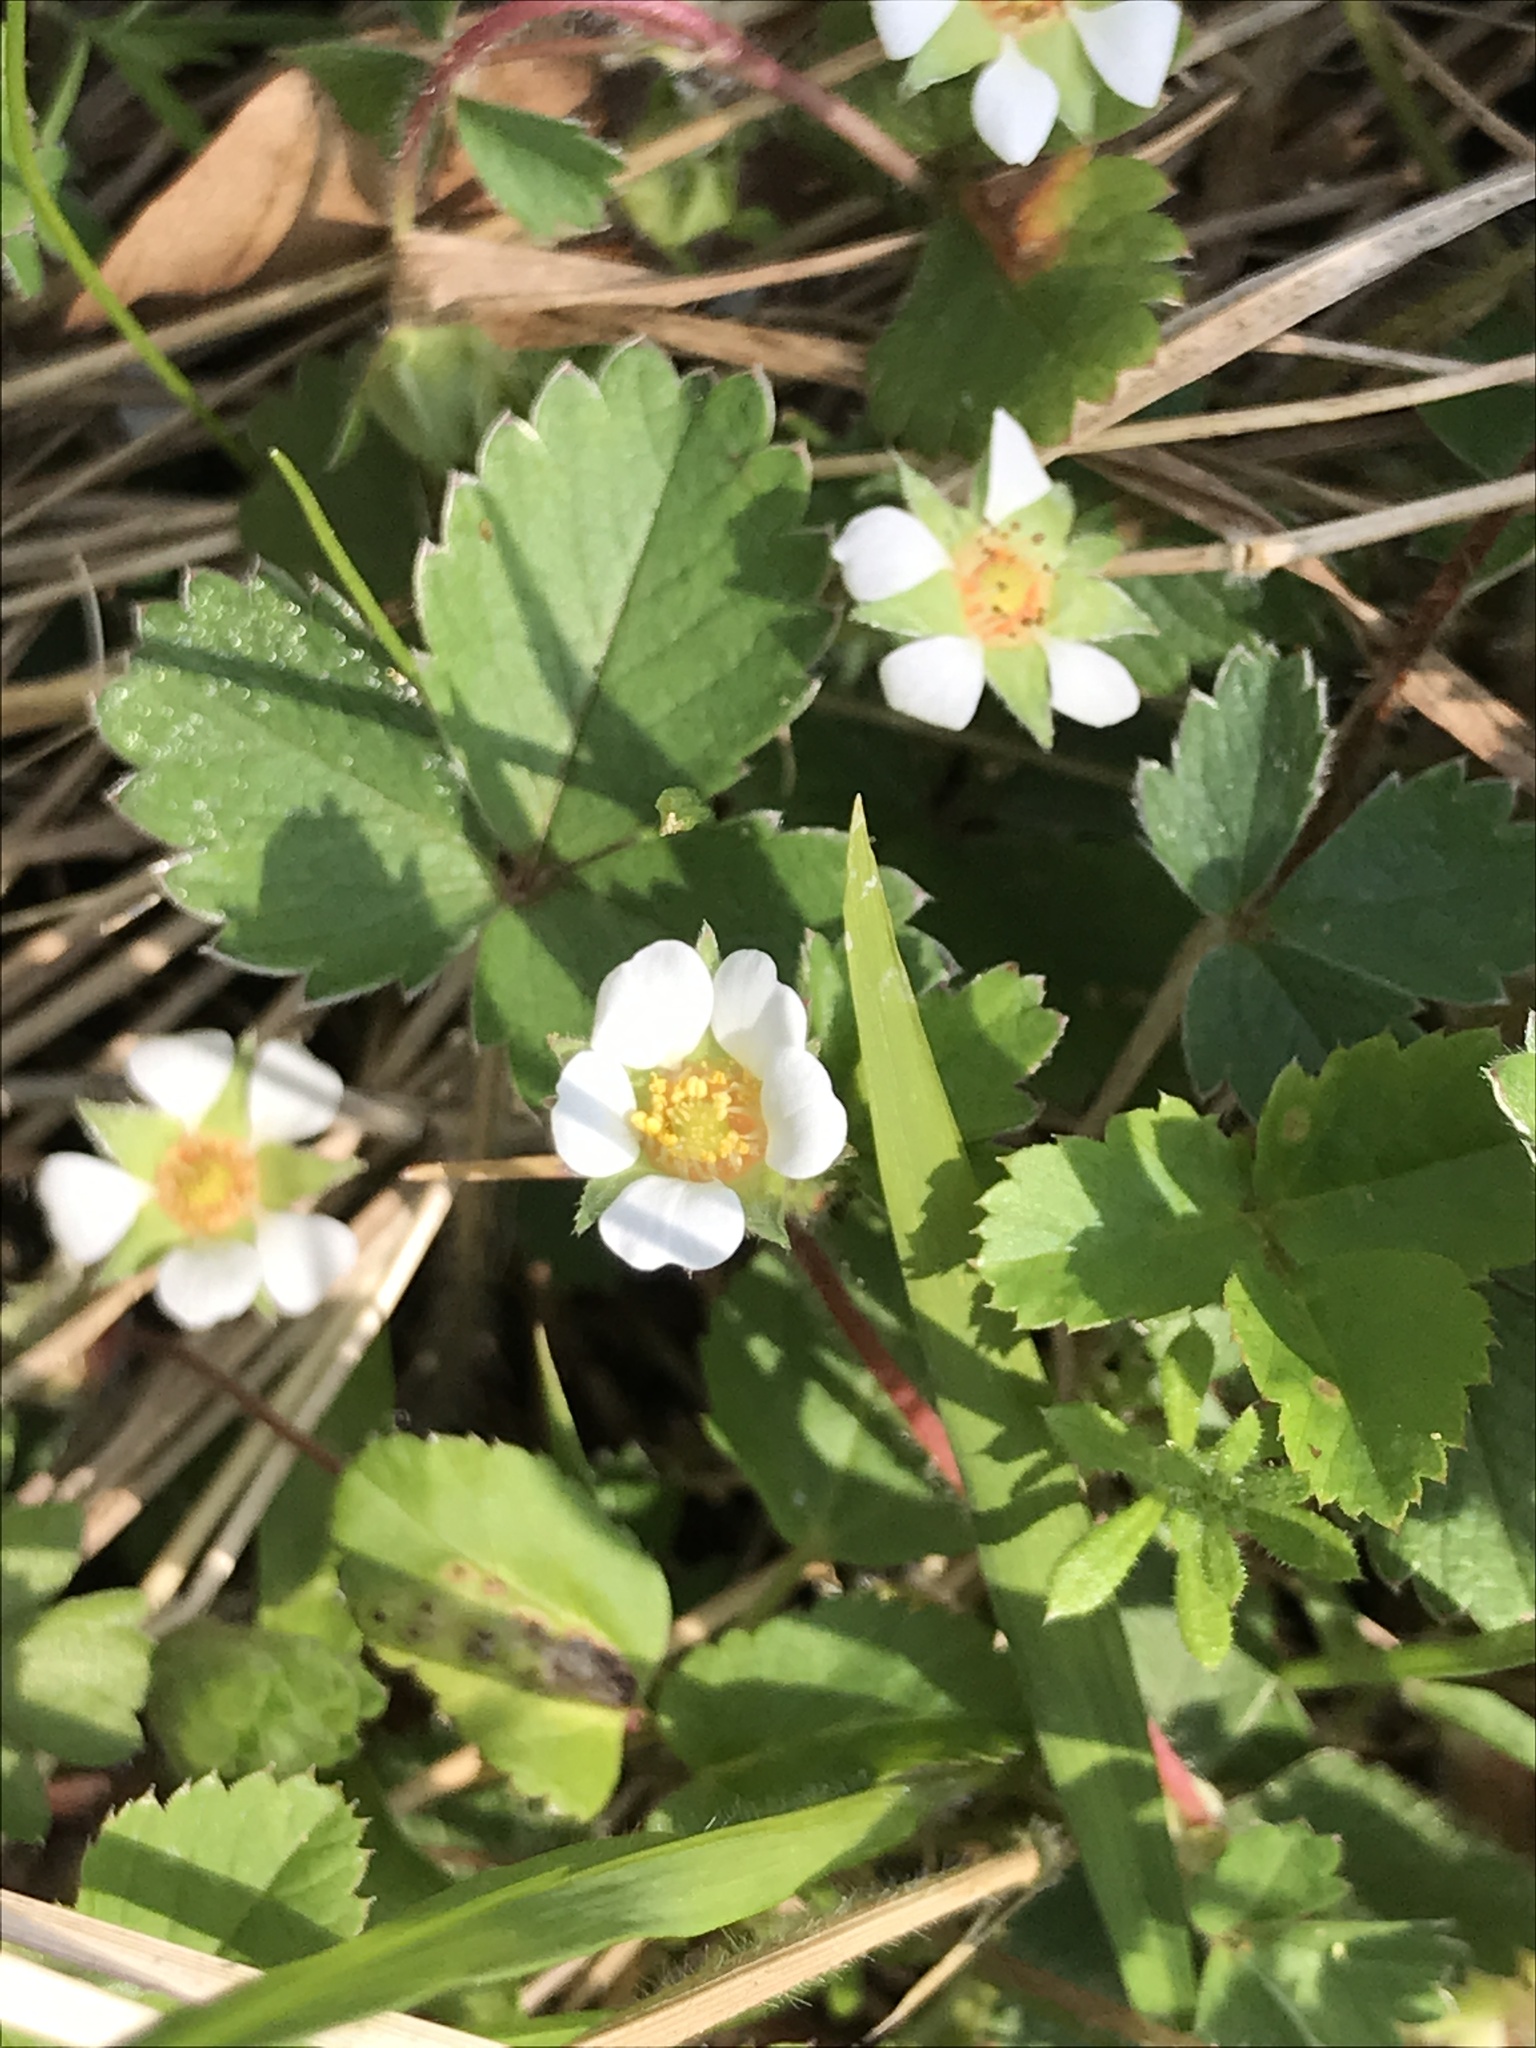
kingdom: Plantae
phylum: Tracheophyta
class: Magnoliopsida
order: Rosales
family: Rosaceae
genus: Potentilla
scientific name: Potentilla sterilis
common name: Barren strawberry
